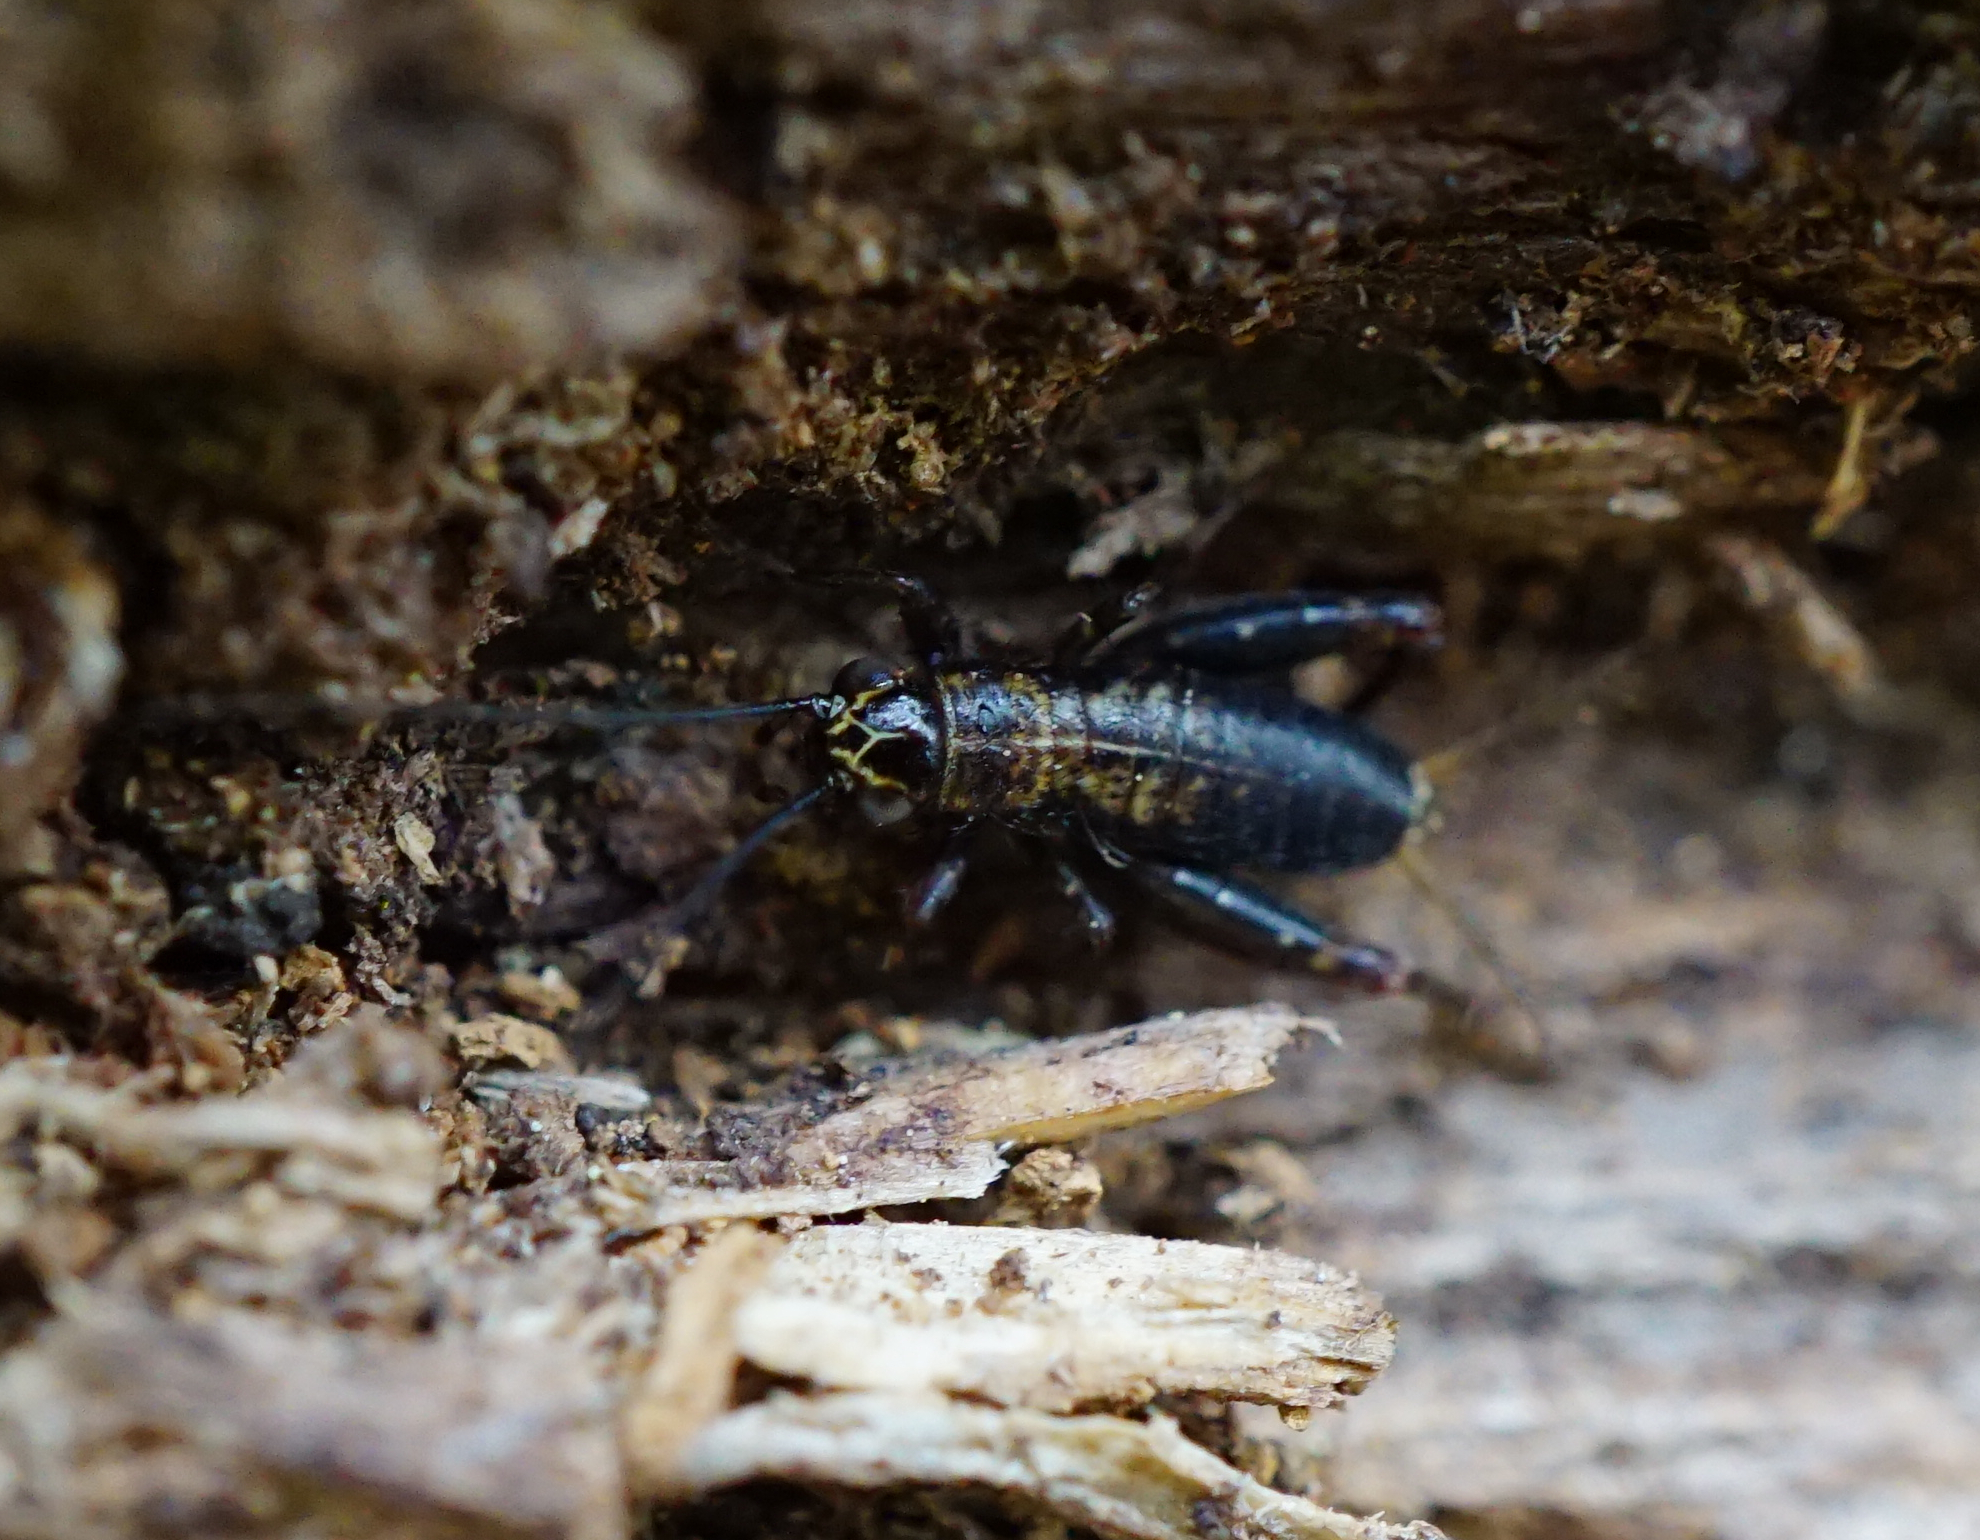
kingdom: Animalia
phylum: Arthropoda
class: Insecta
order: Orthoptera
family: Trigonidiidae
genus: Nemobius
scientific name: Nemobius sylvestris
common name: Wood-cricket
